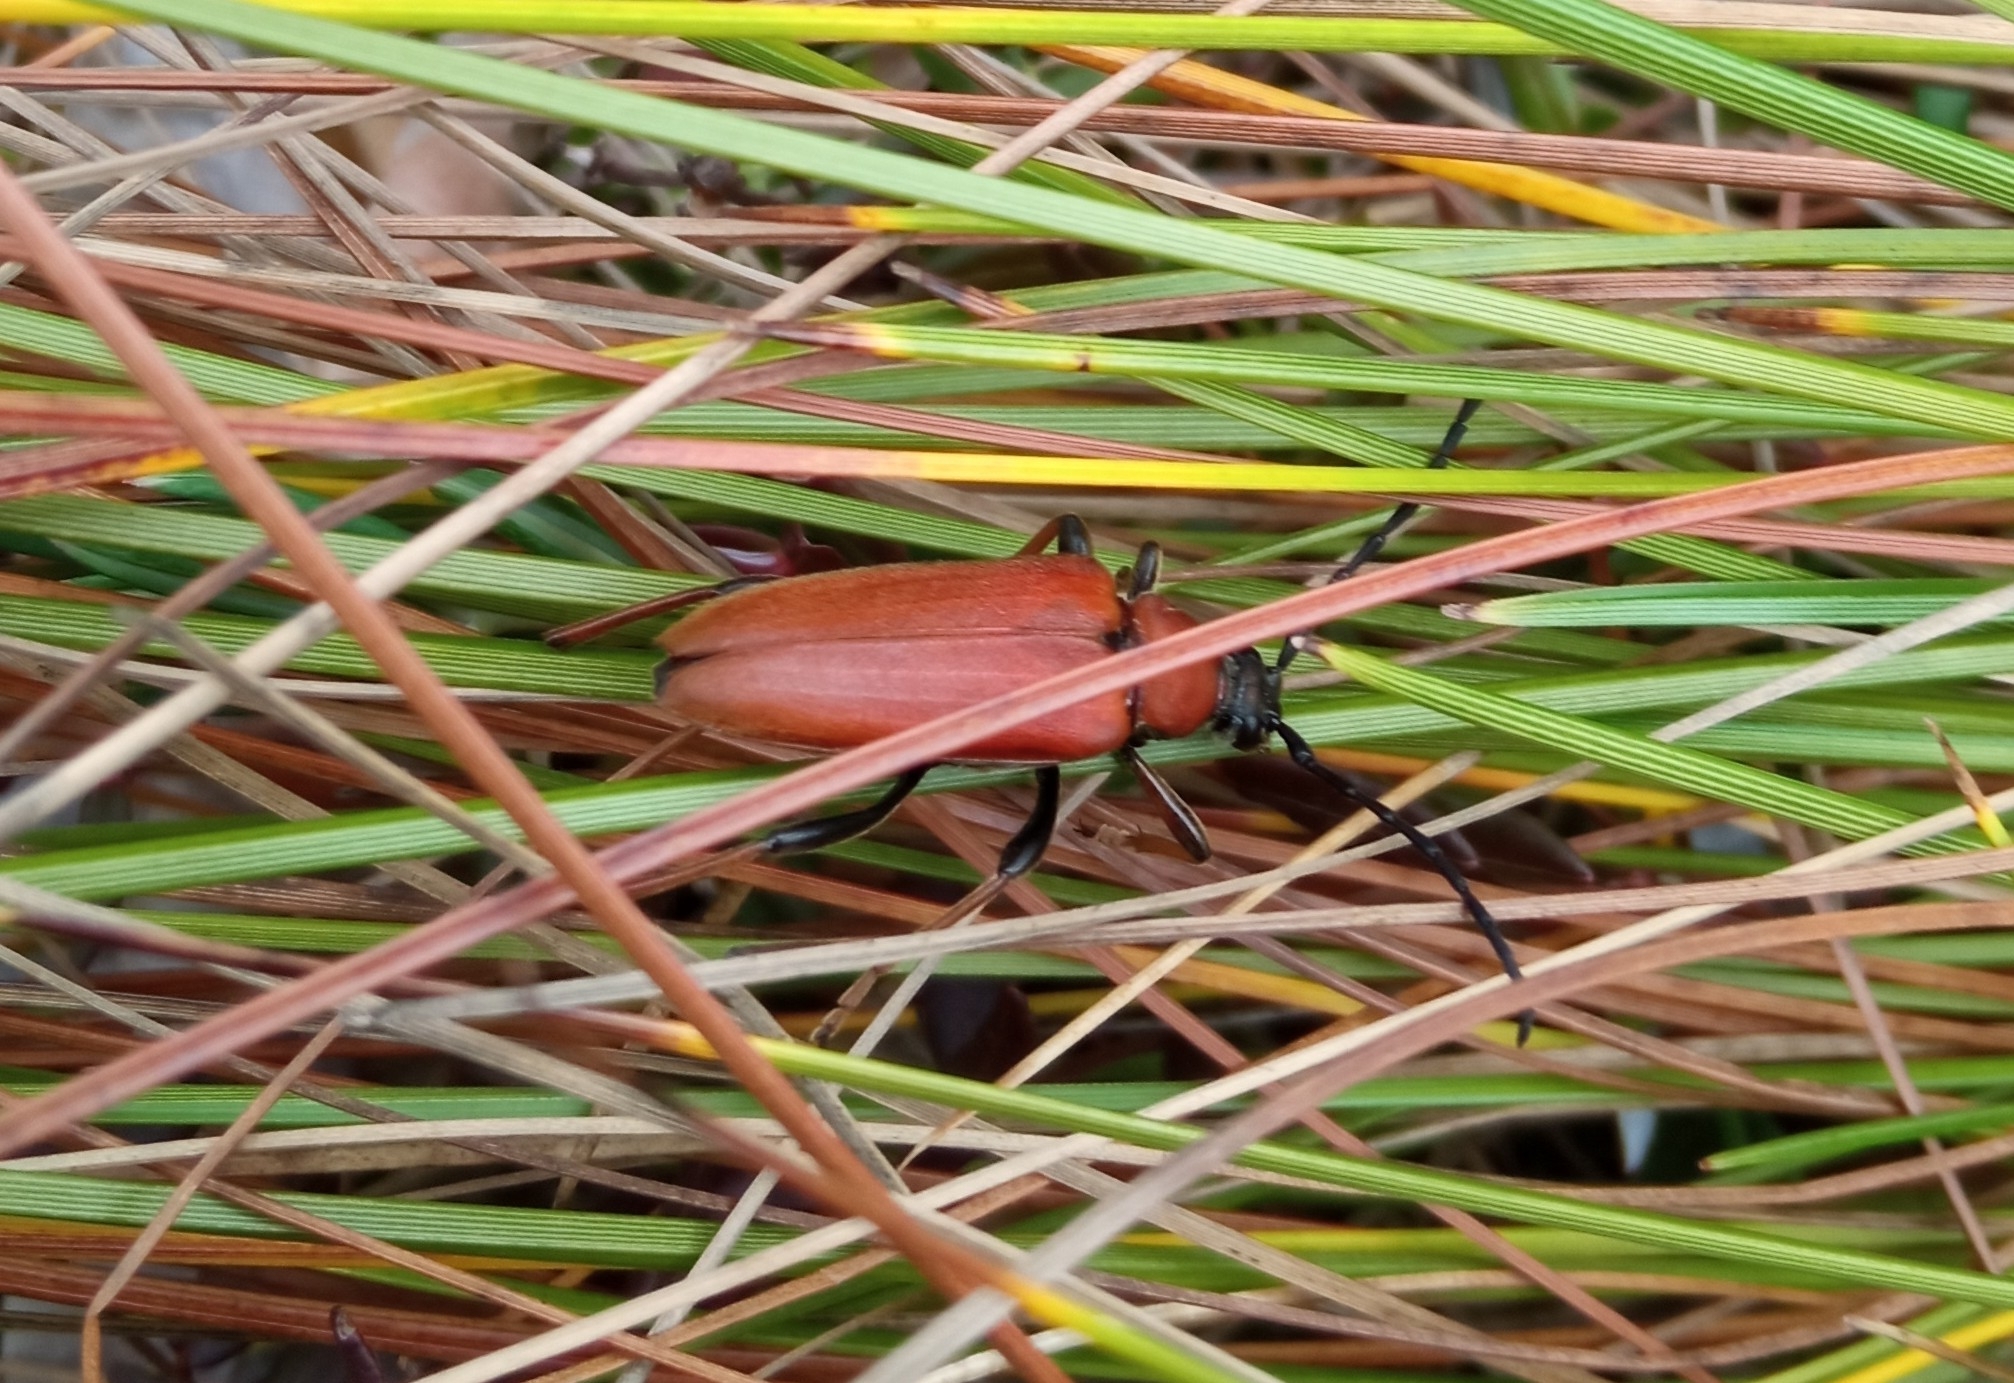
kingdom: Animalia
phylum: Arthropoda
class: Insecta
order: Coleoptera
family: Cerambycidae
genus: Stictoleptura
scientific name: Stictoleptura rubra
